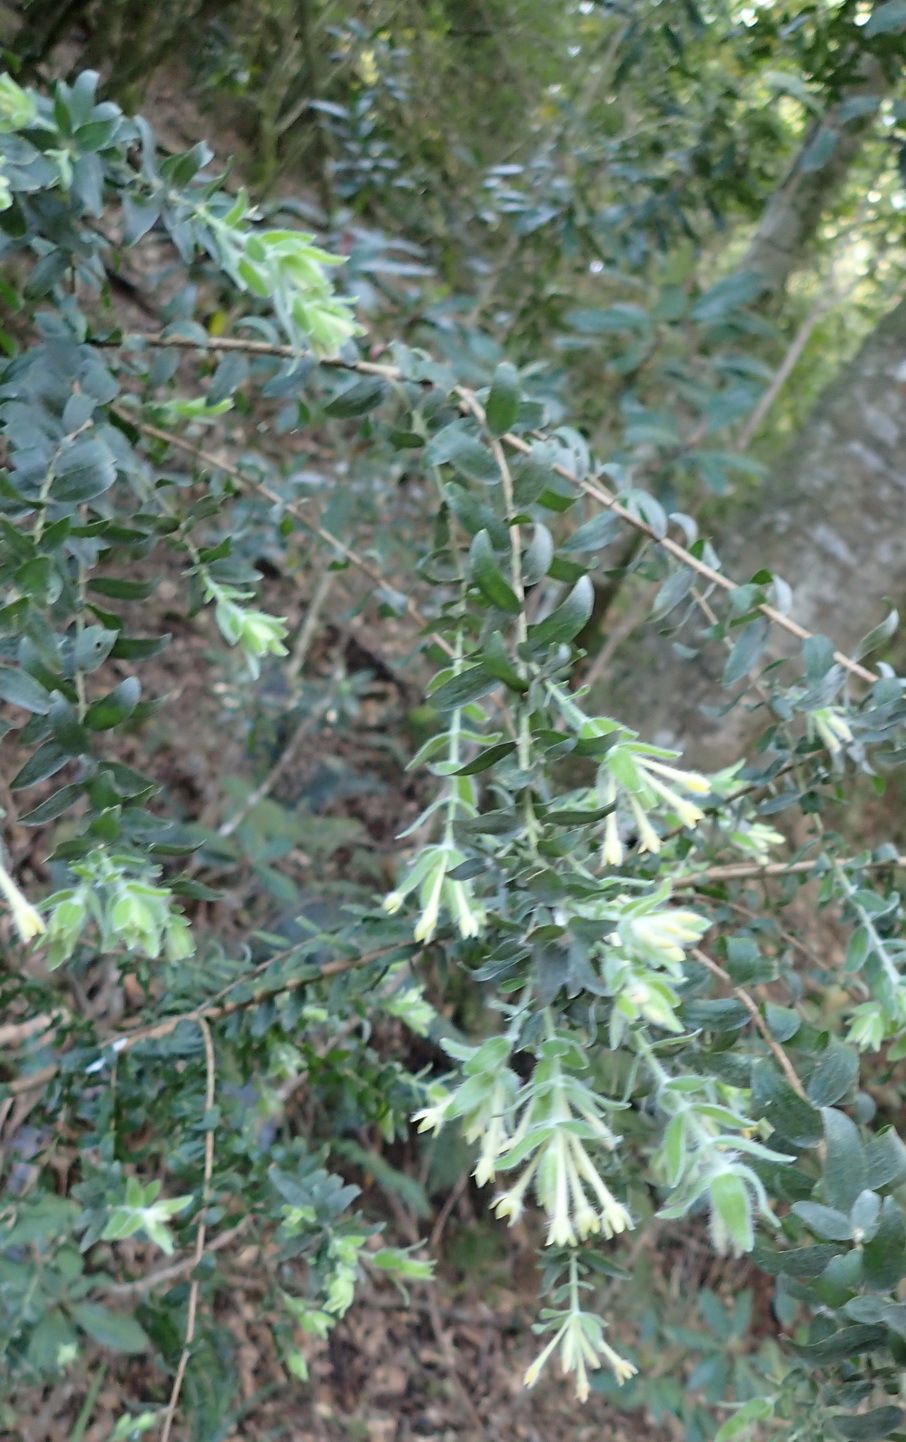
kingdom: Plantae
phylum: Tracheophyta
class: Magnoliopsida
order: Malvales
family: Thymelaeaceae
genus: Gnidia
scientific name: Gnidia
